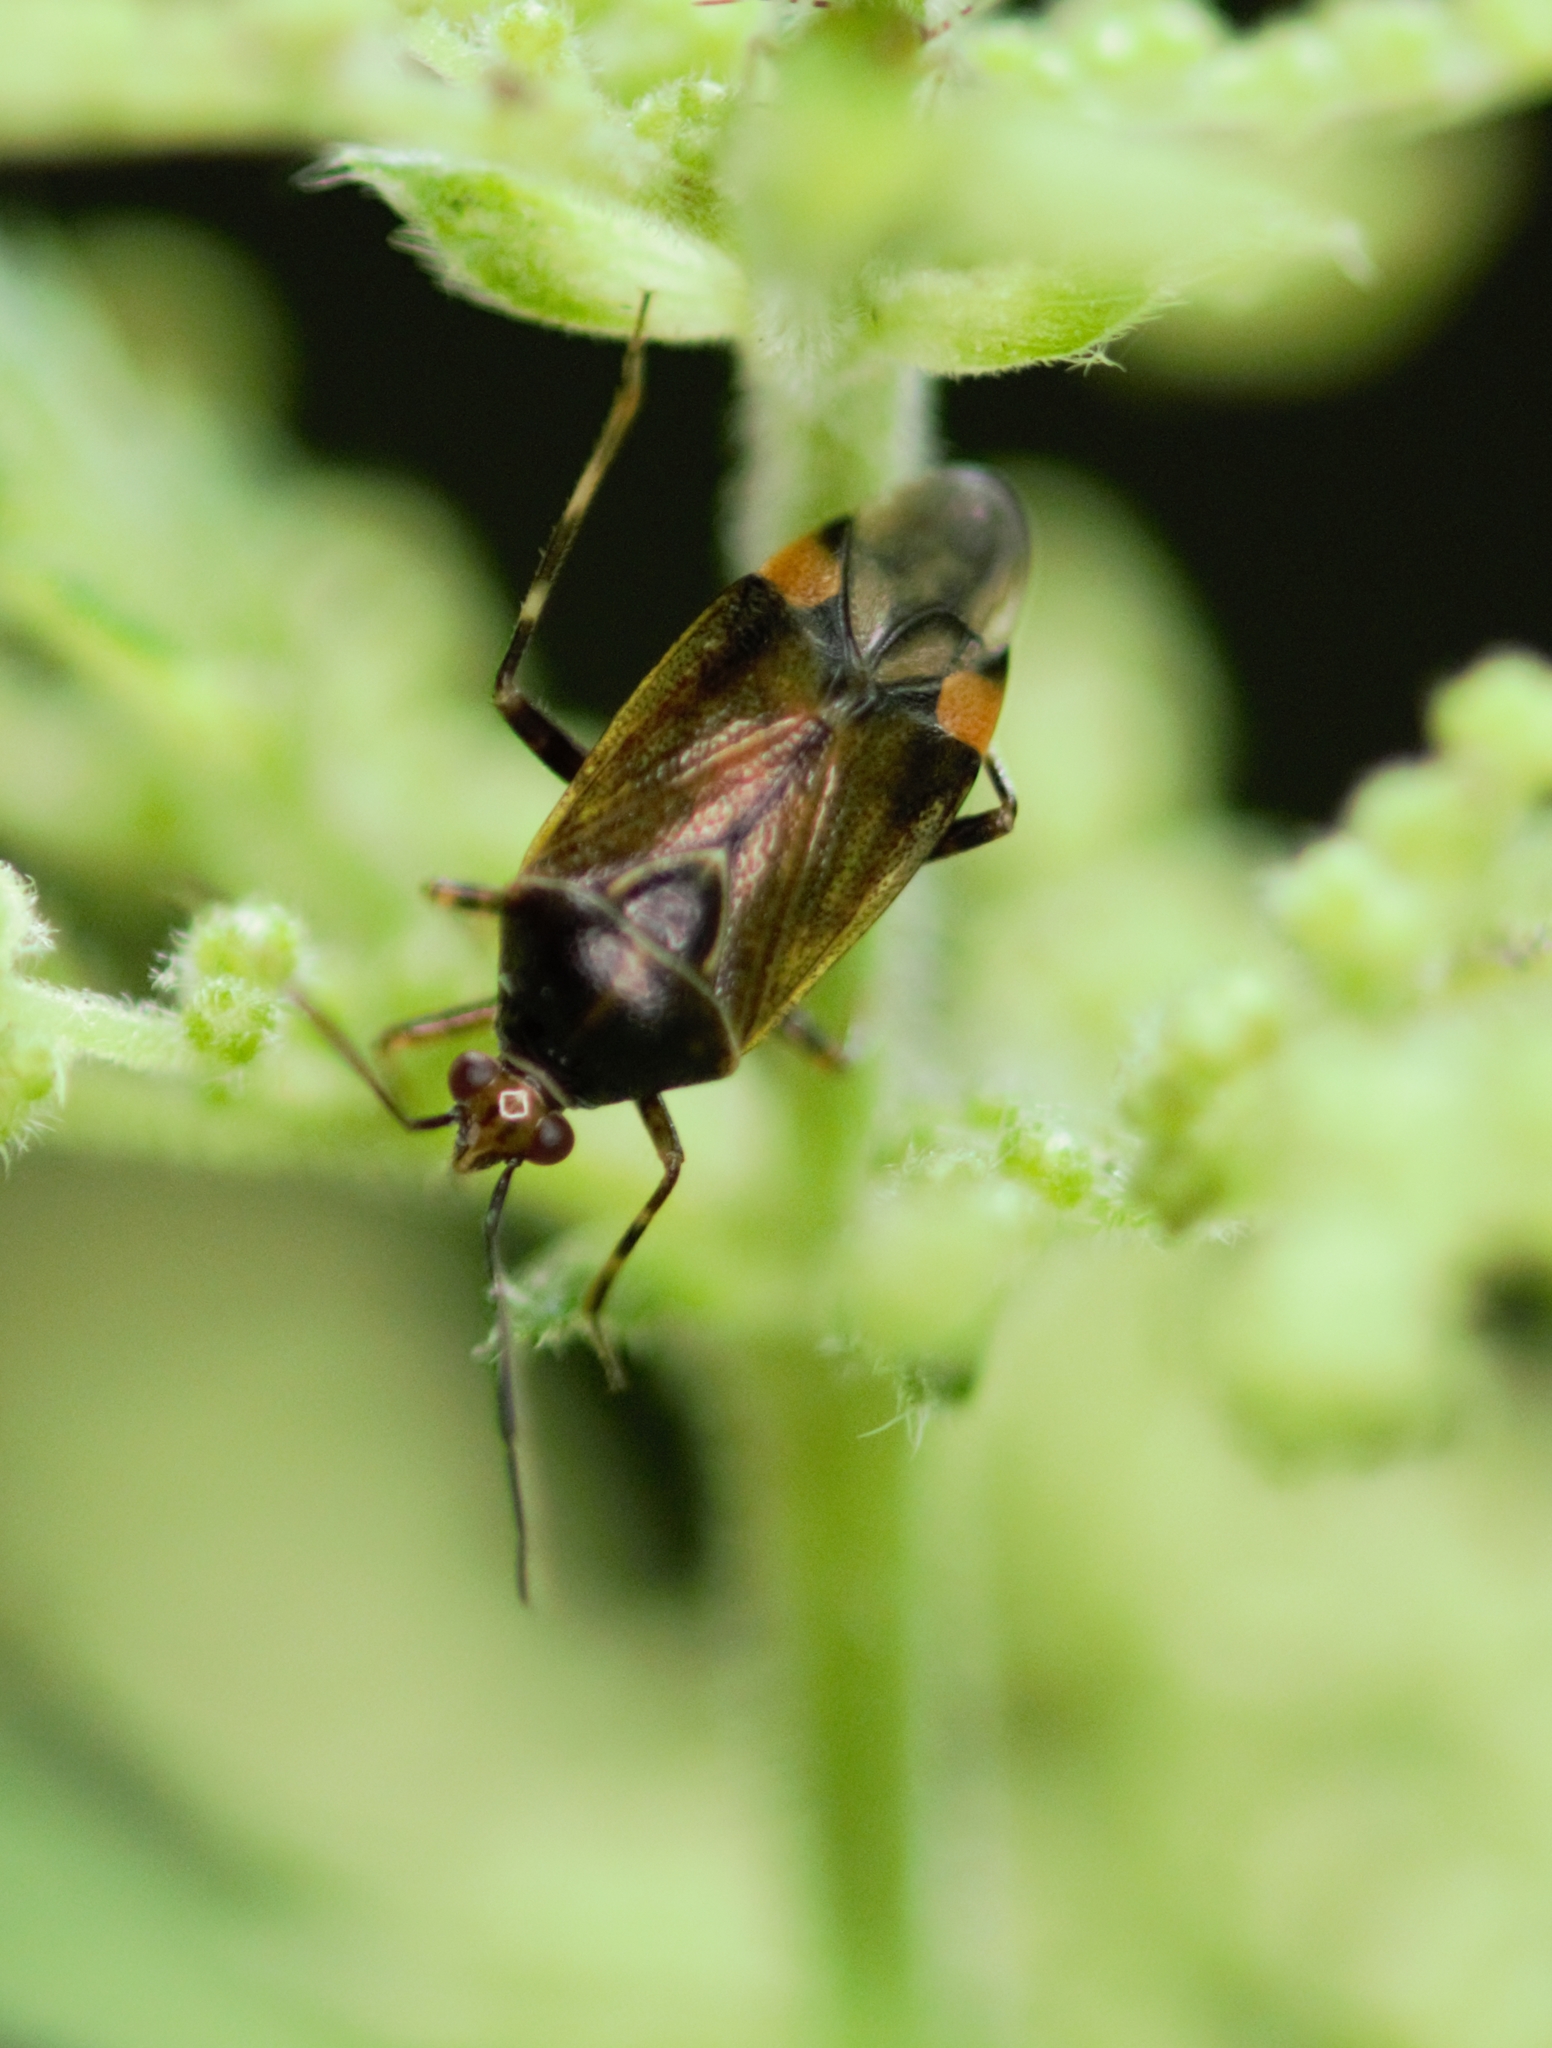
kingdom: Animalia
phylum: Arthropoda
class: Insecta
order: Hemiptera
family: Miridae
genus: Deraeocoris
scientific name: Deraeocoris flavilinea
